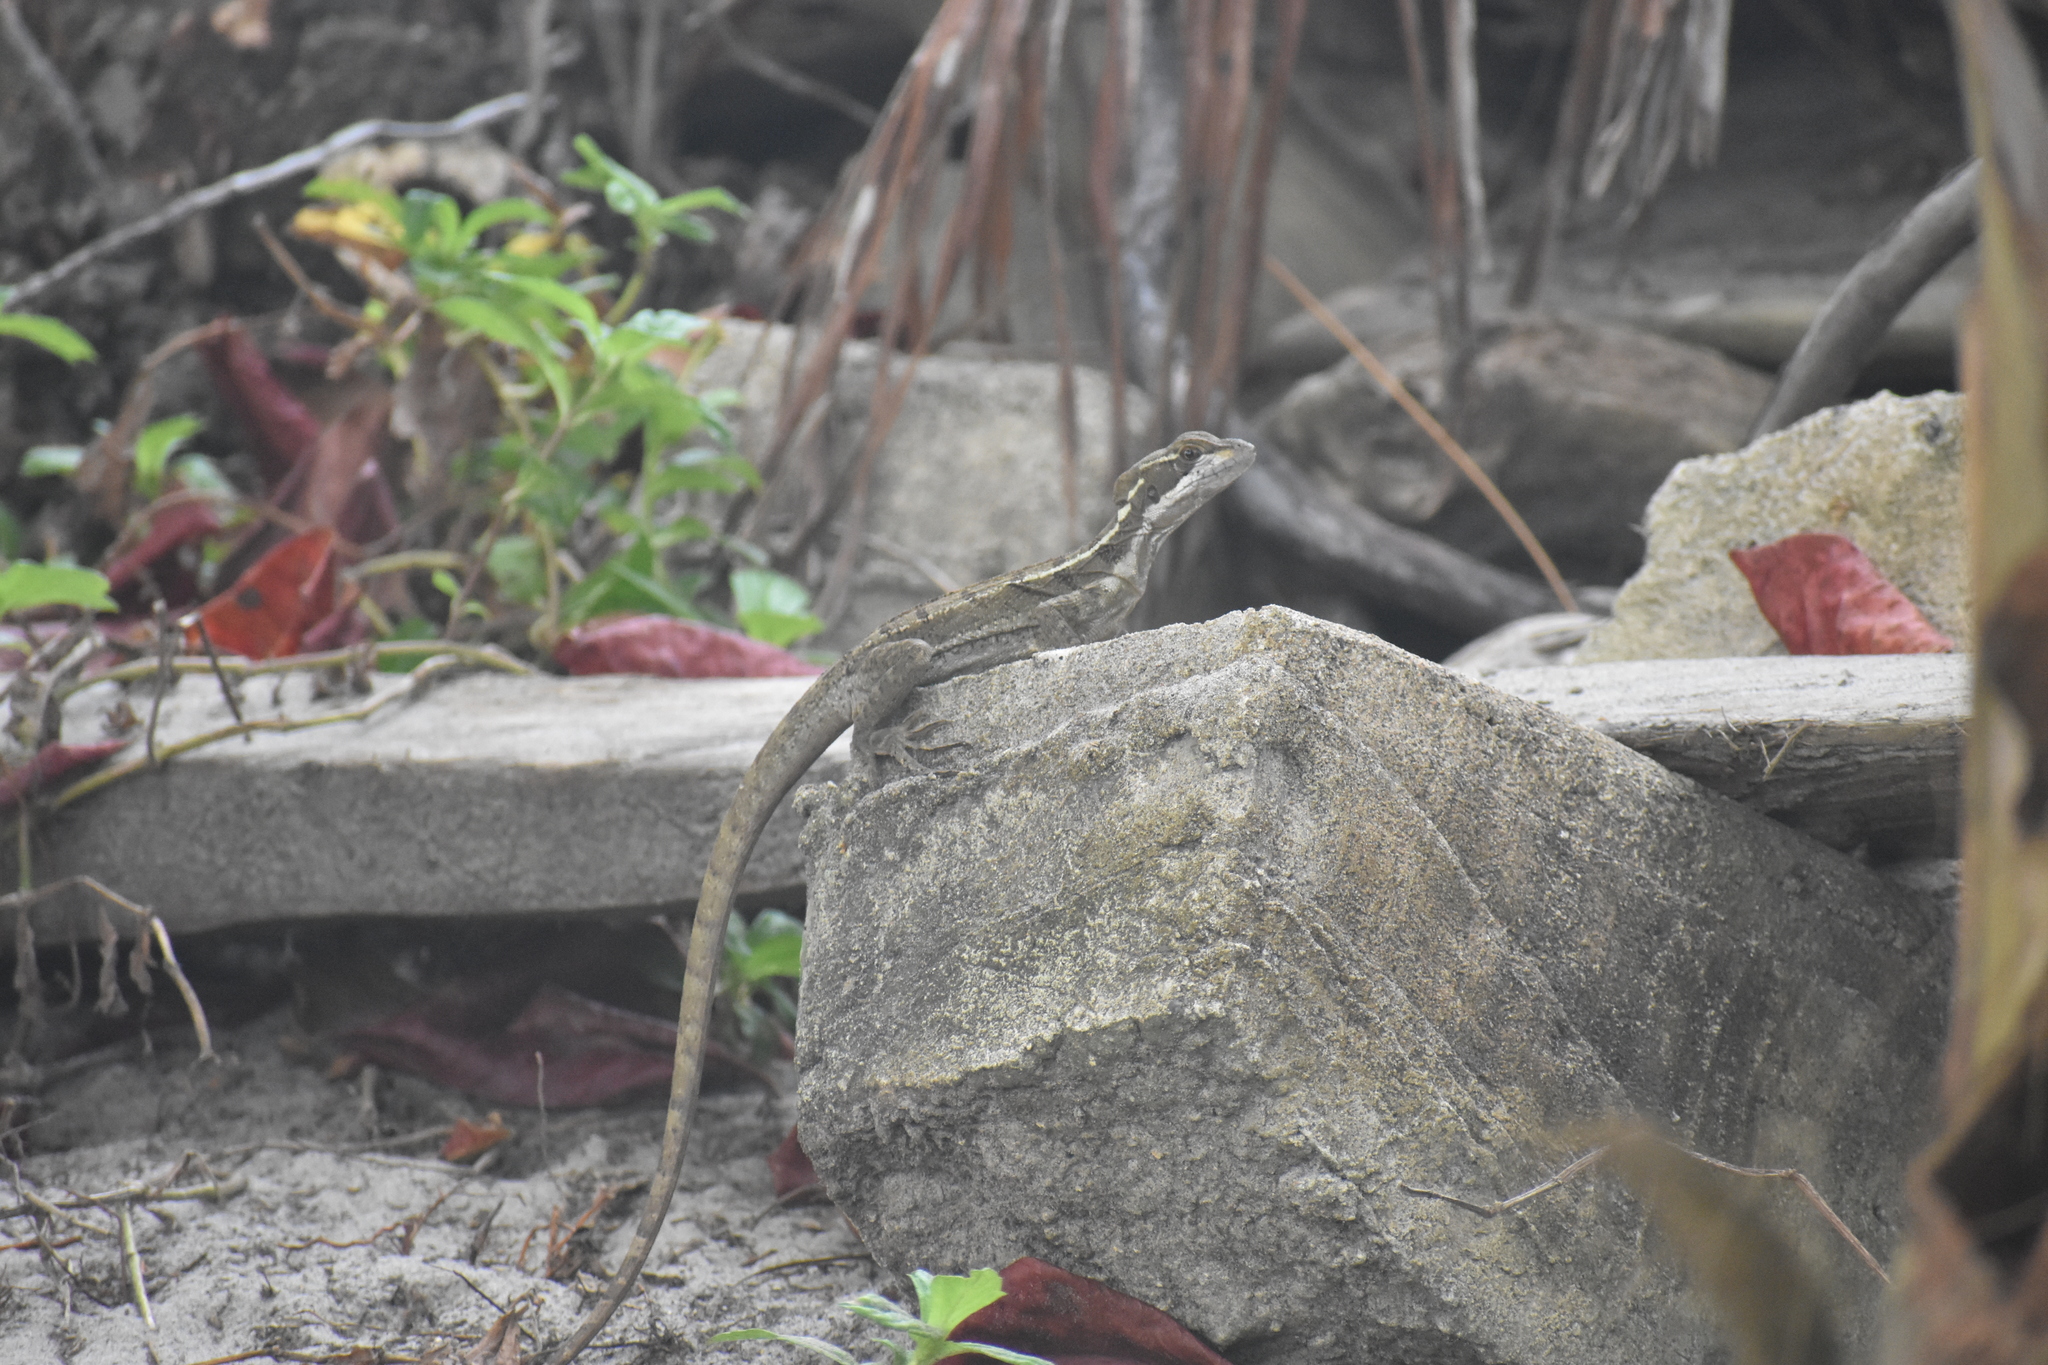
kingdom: Animalia
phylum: Chordata
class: Squamata
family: Corytophanidae
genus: Basiliscus
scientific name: Basiliscus basiliscus
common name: Common basilisk
